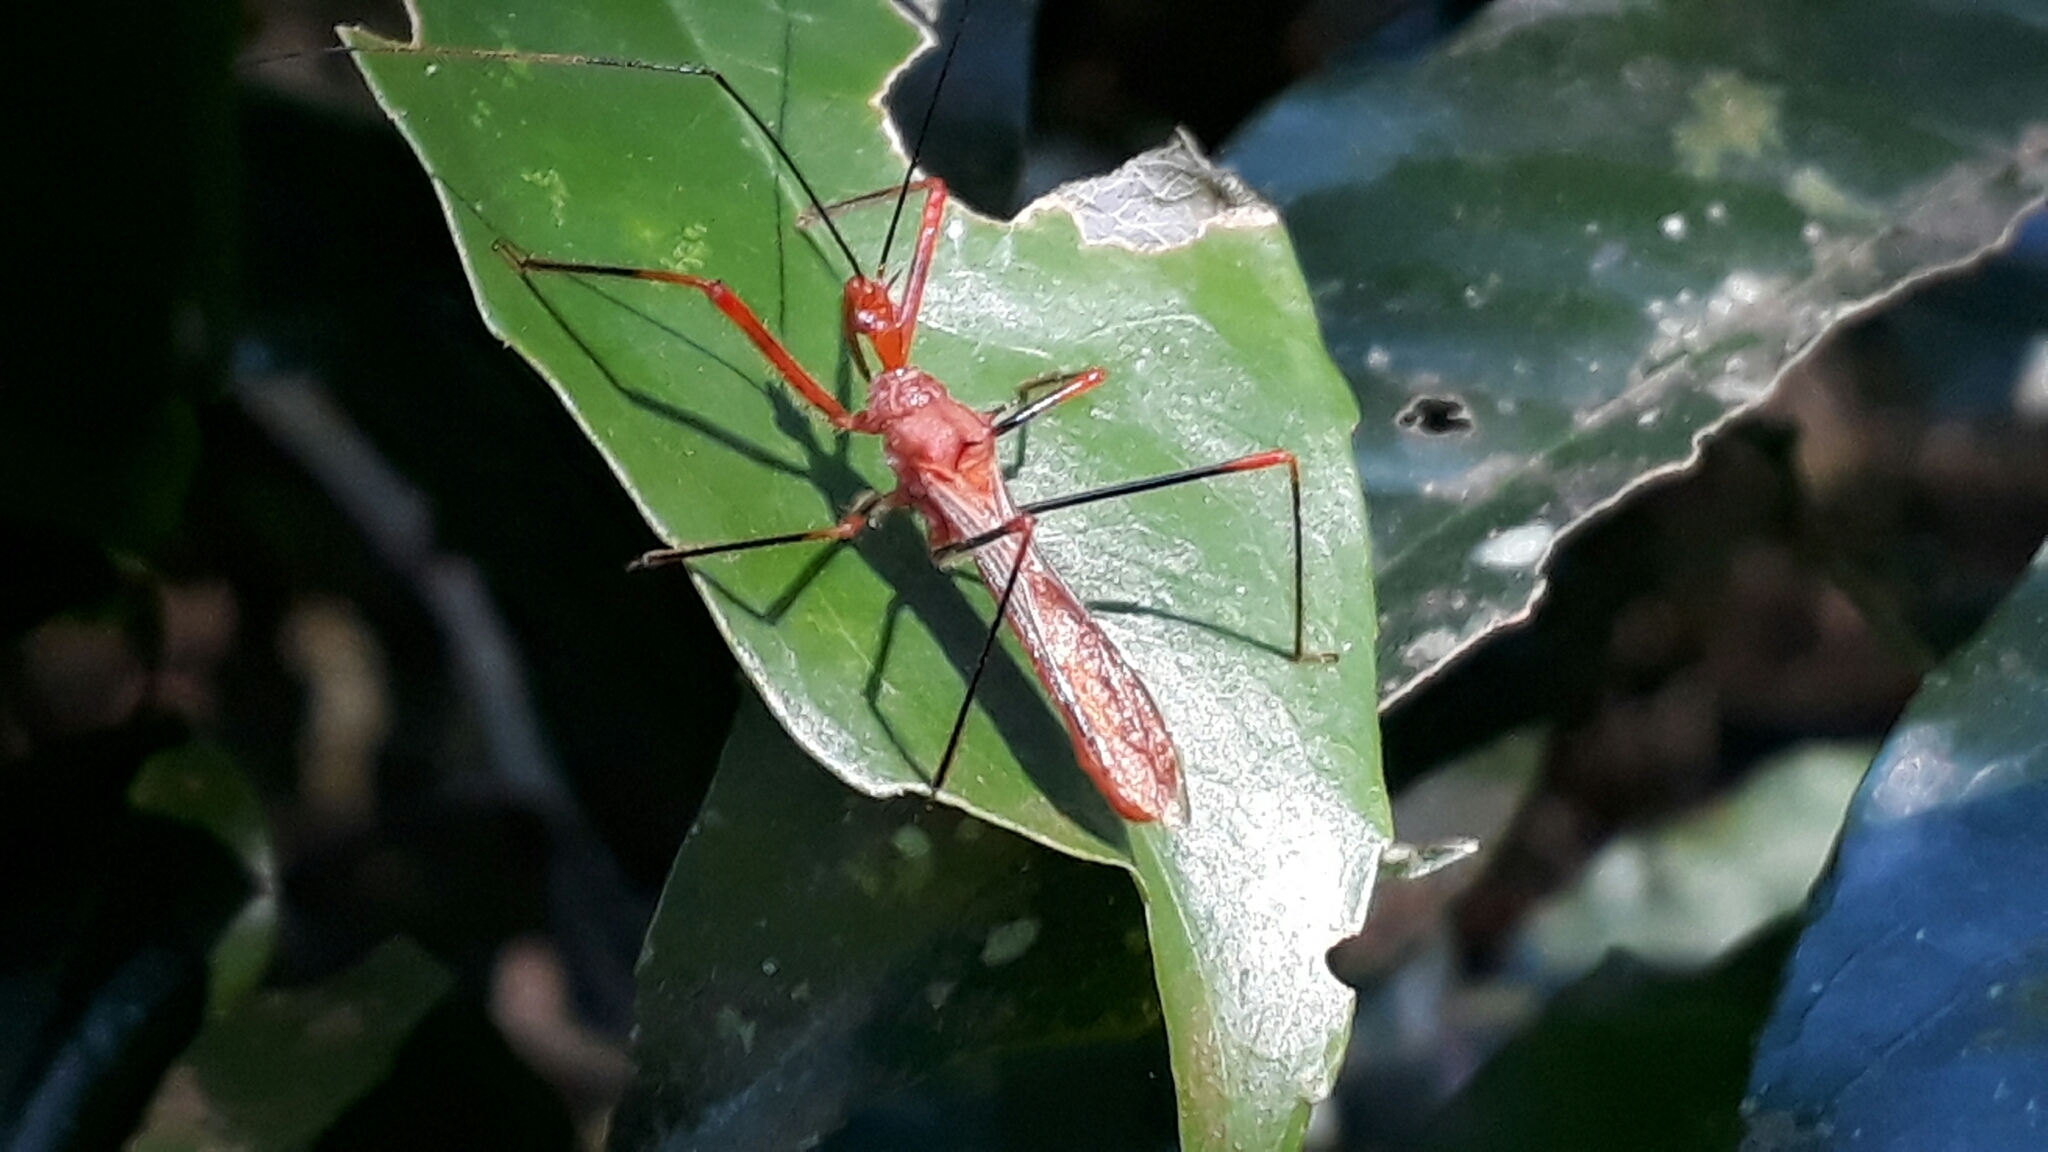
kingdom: Animalia
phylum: Arthropoda
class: Insecta
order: Hemiptera
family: Reduviidae
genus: Ricolla
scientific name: Ricolla quadrispinosa
